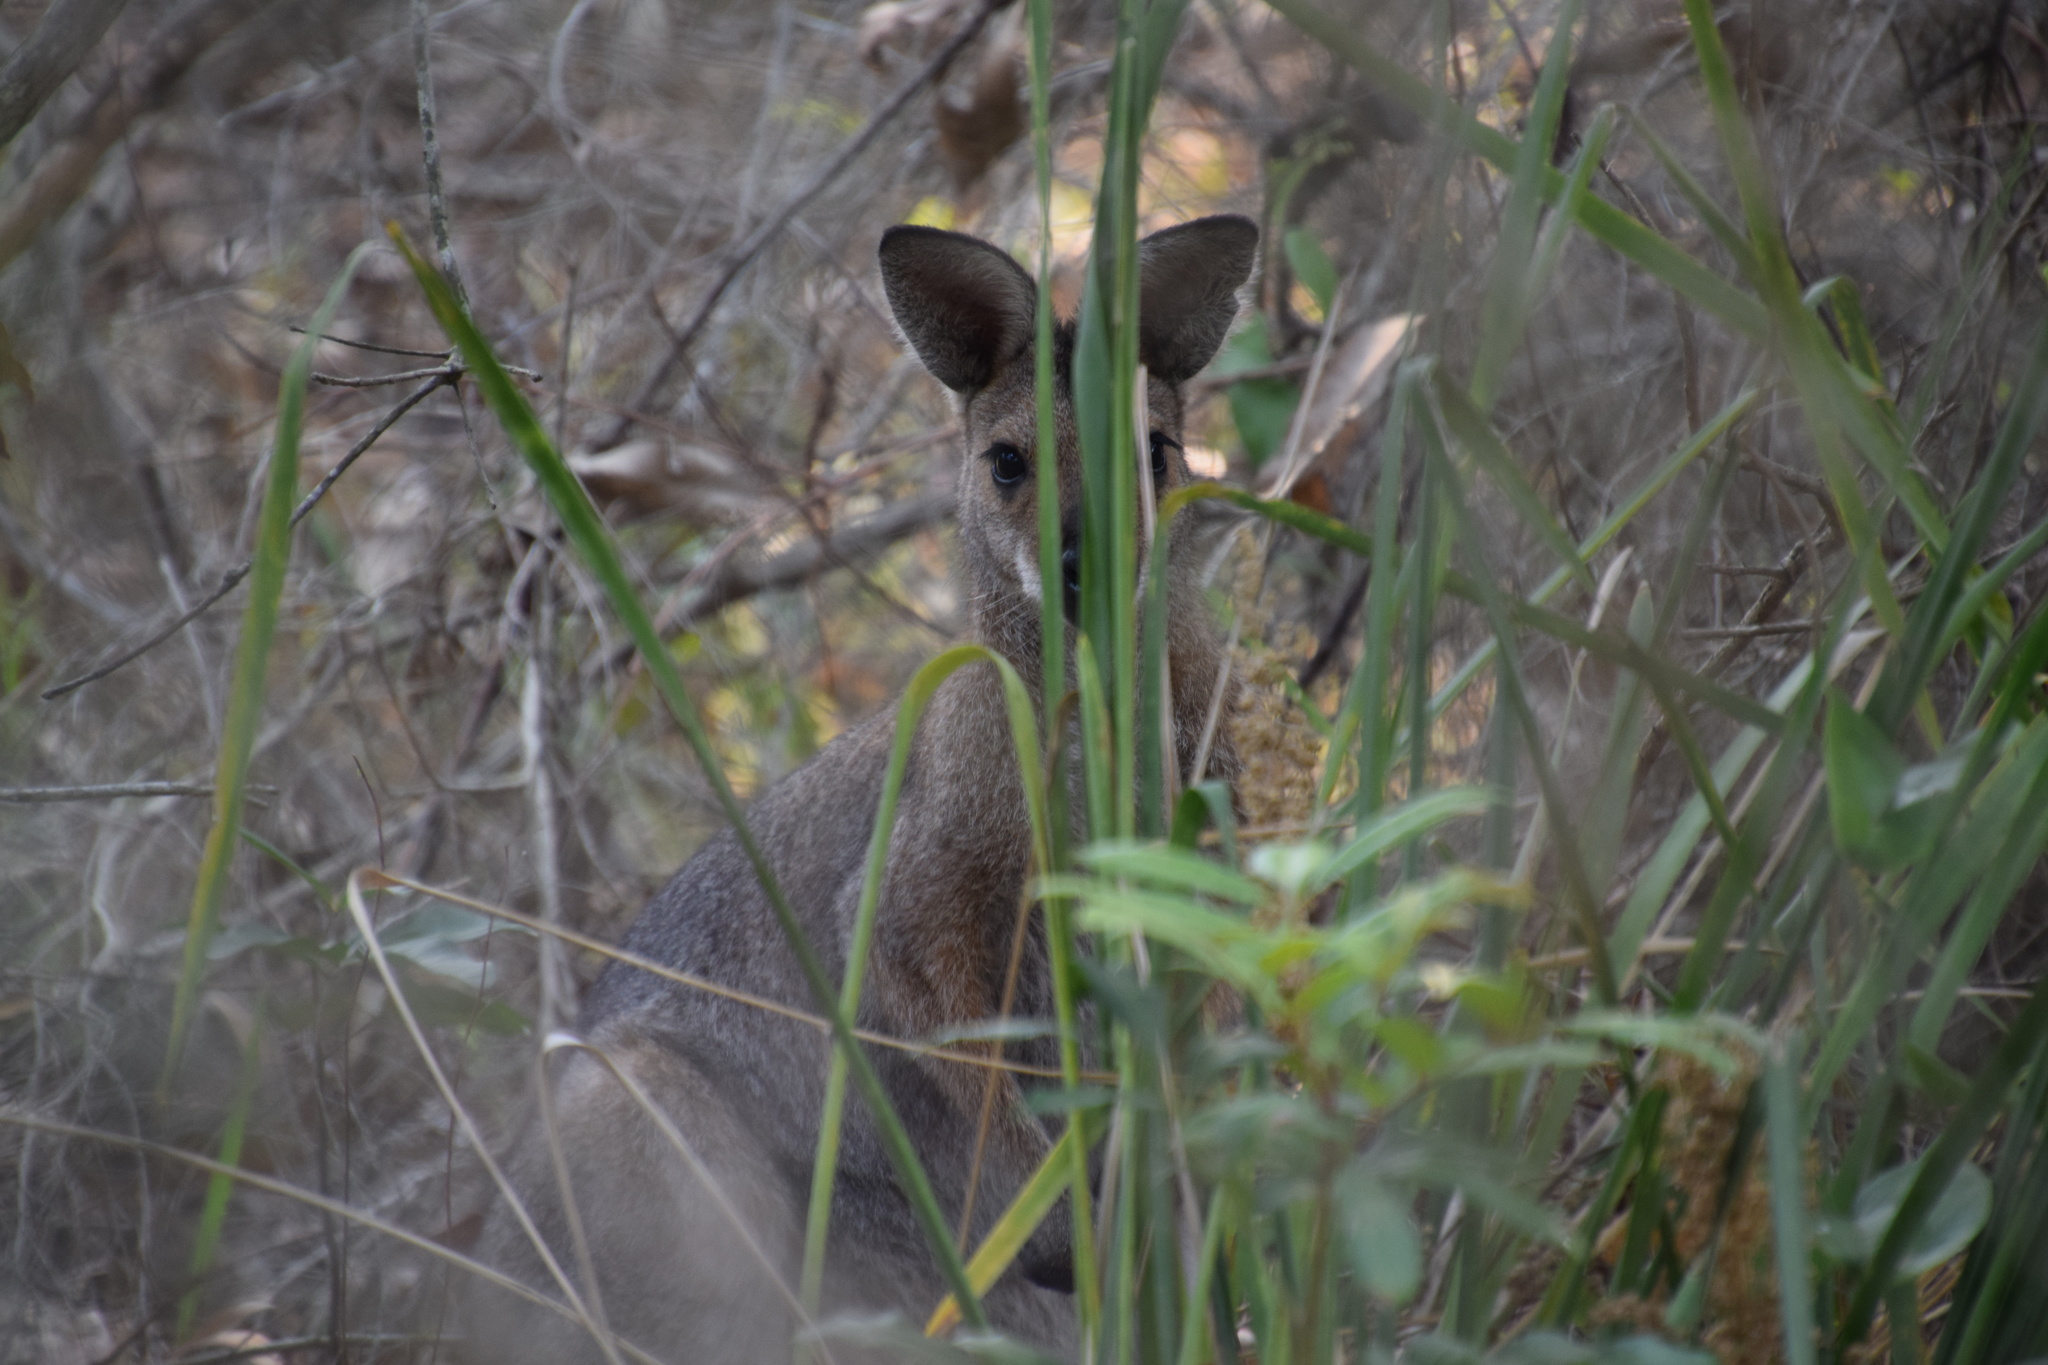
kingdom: Animalia
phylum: Chordata
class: Mammalia
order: Diprotodontia
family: Macropodidae
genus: Notamacropus
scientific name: Notamacropus rufogriseus
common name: Red-necked wallaby
